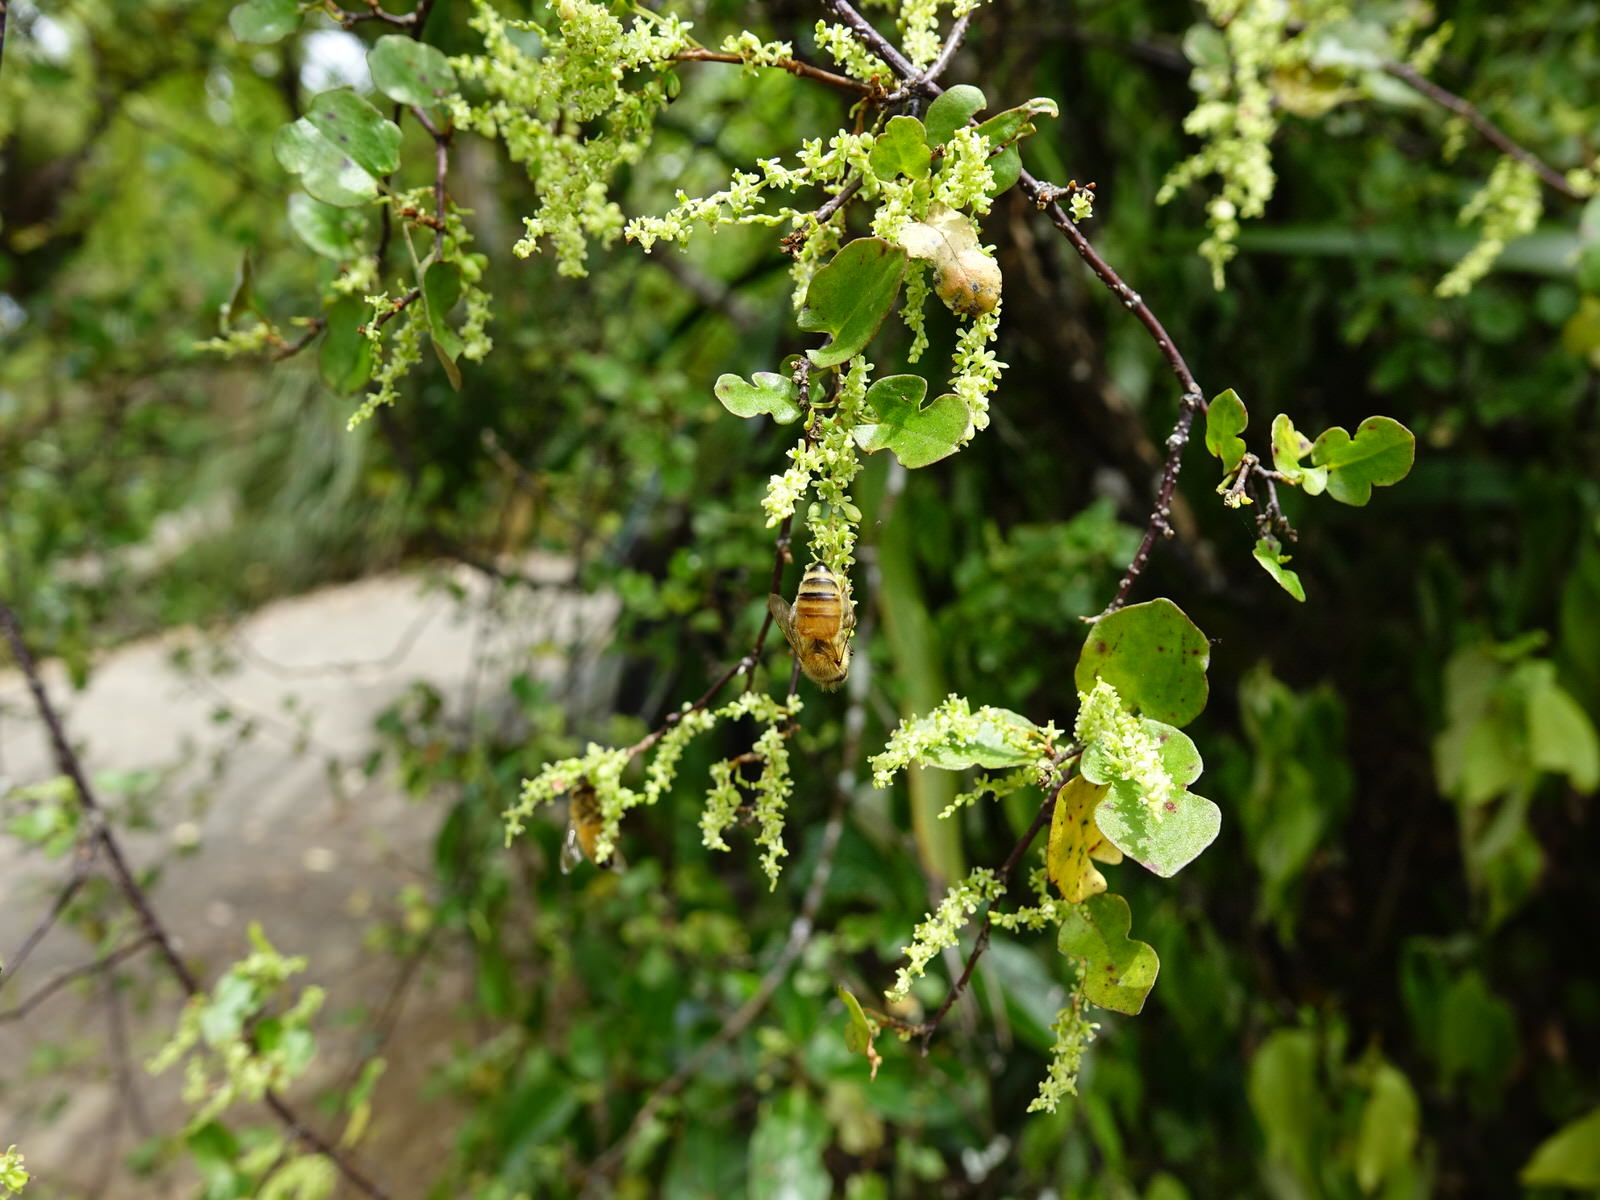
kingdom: Animalia
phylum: Arthropoda
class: Insecta
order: Hymenoptera
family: Apidae
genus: Apis
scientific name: Apis mellifera
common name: Honey bee
